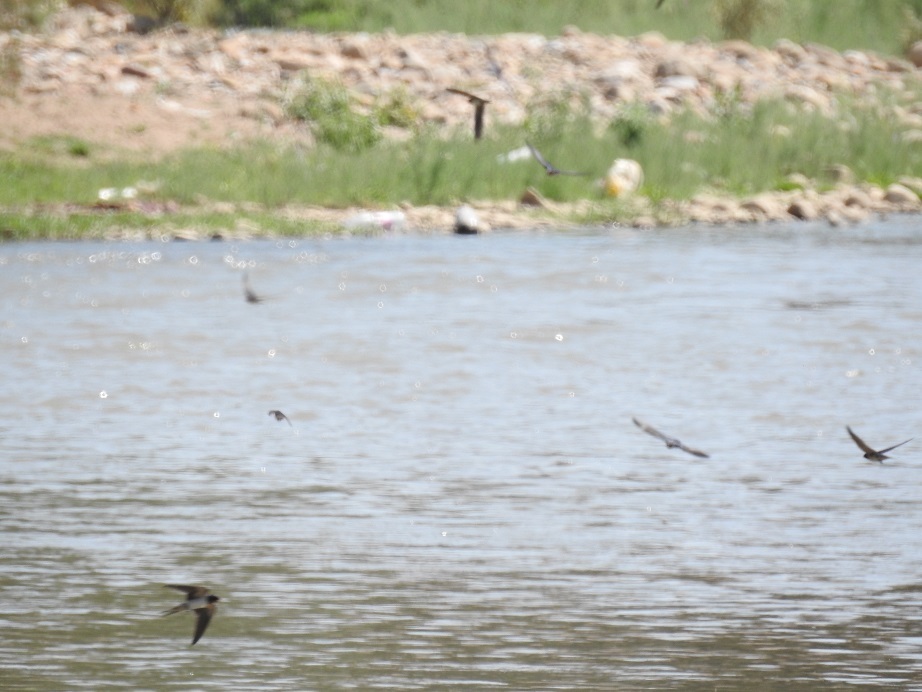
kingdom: Animalia
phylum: Chordata
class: Aves
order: Passeriformes
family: Hirundinidae
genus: Hirundo
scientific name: Hirundo rustica
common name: Barn swallow
